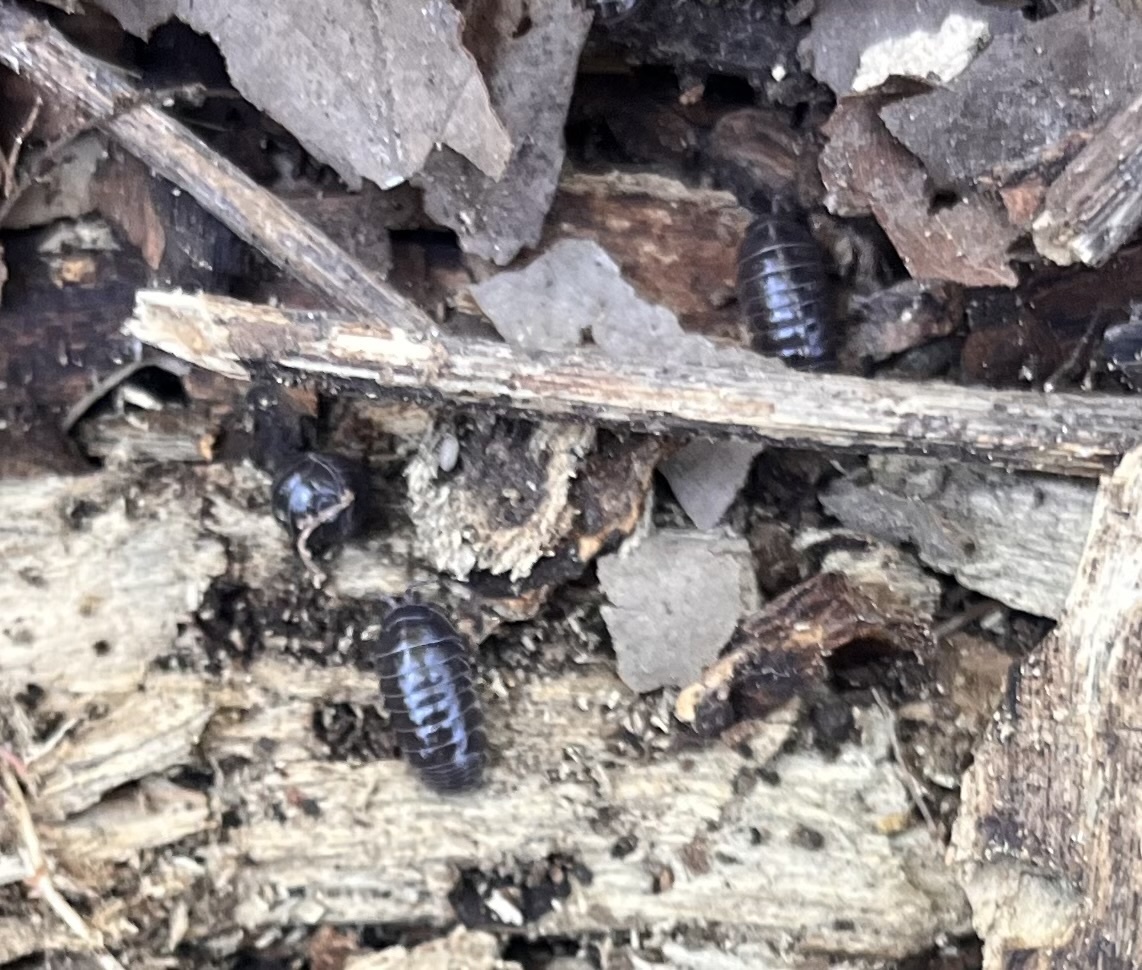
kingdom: Animalia
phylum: Arthropoda
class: Malacostraca
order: Isopoda
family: Armadillidiidae
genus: Armadillidium
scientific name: Armadillidium vulgare
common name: Common pill woodlouse
